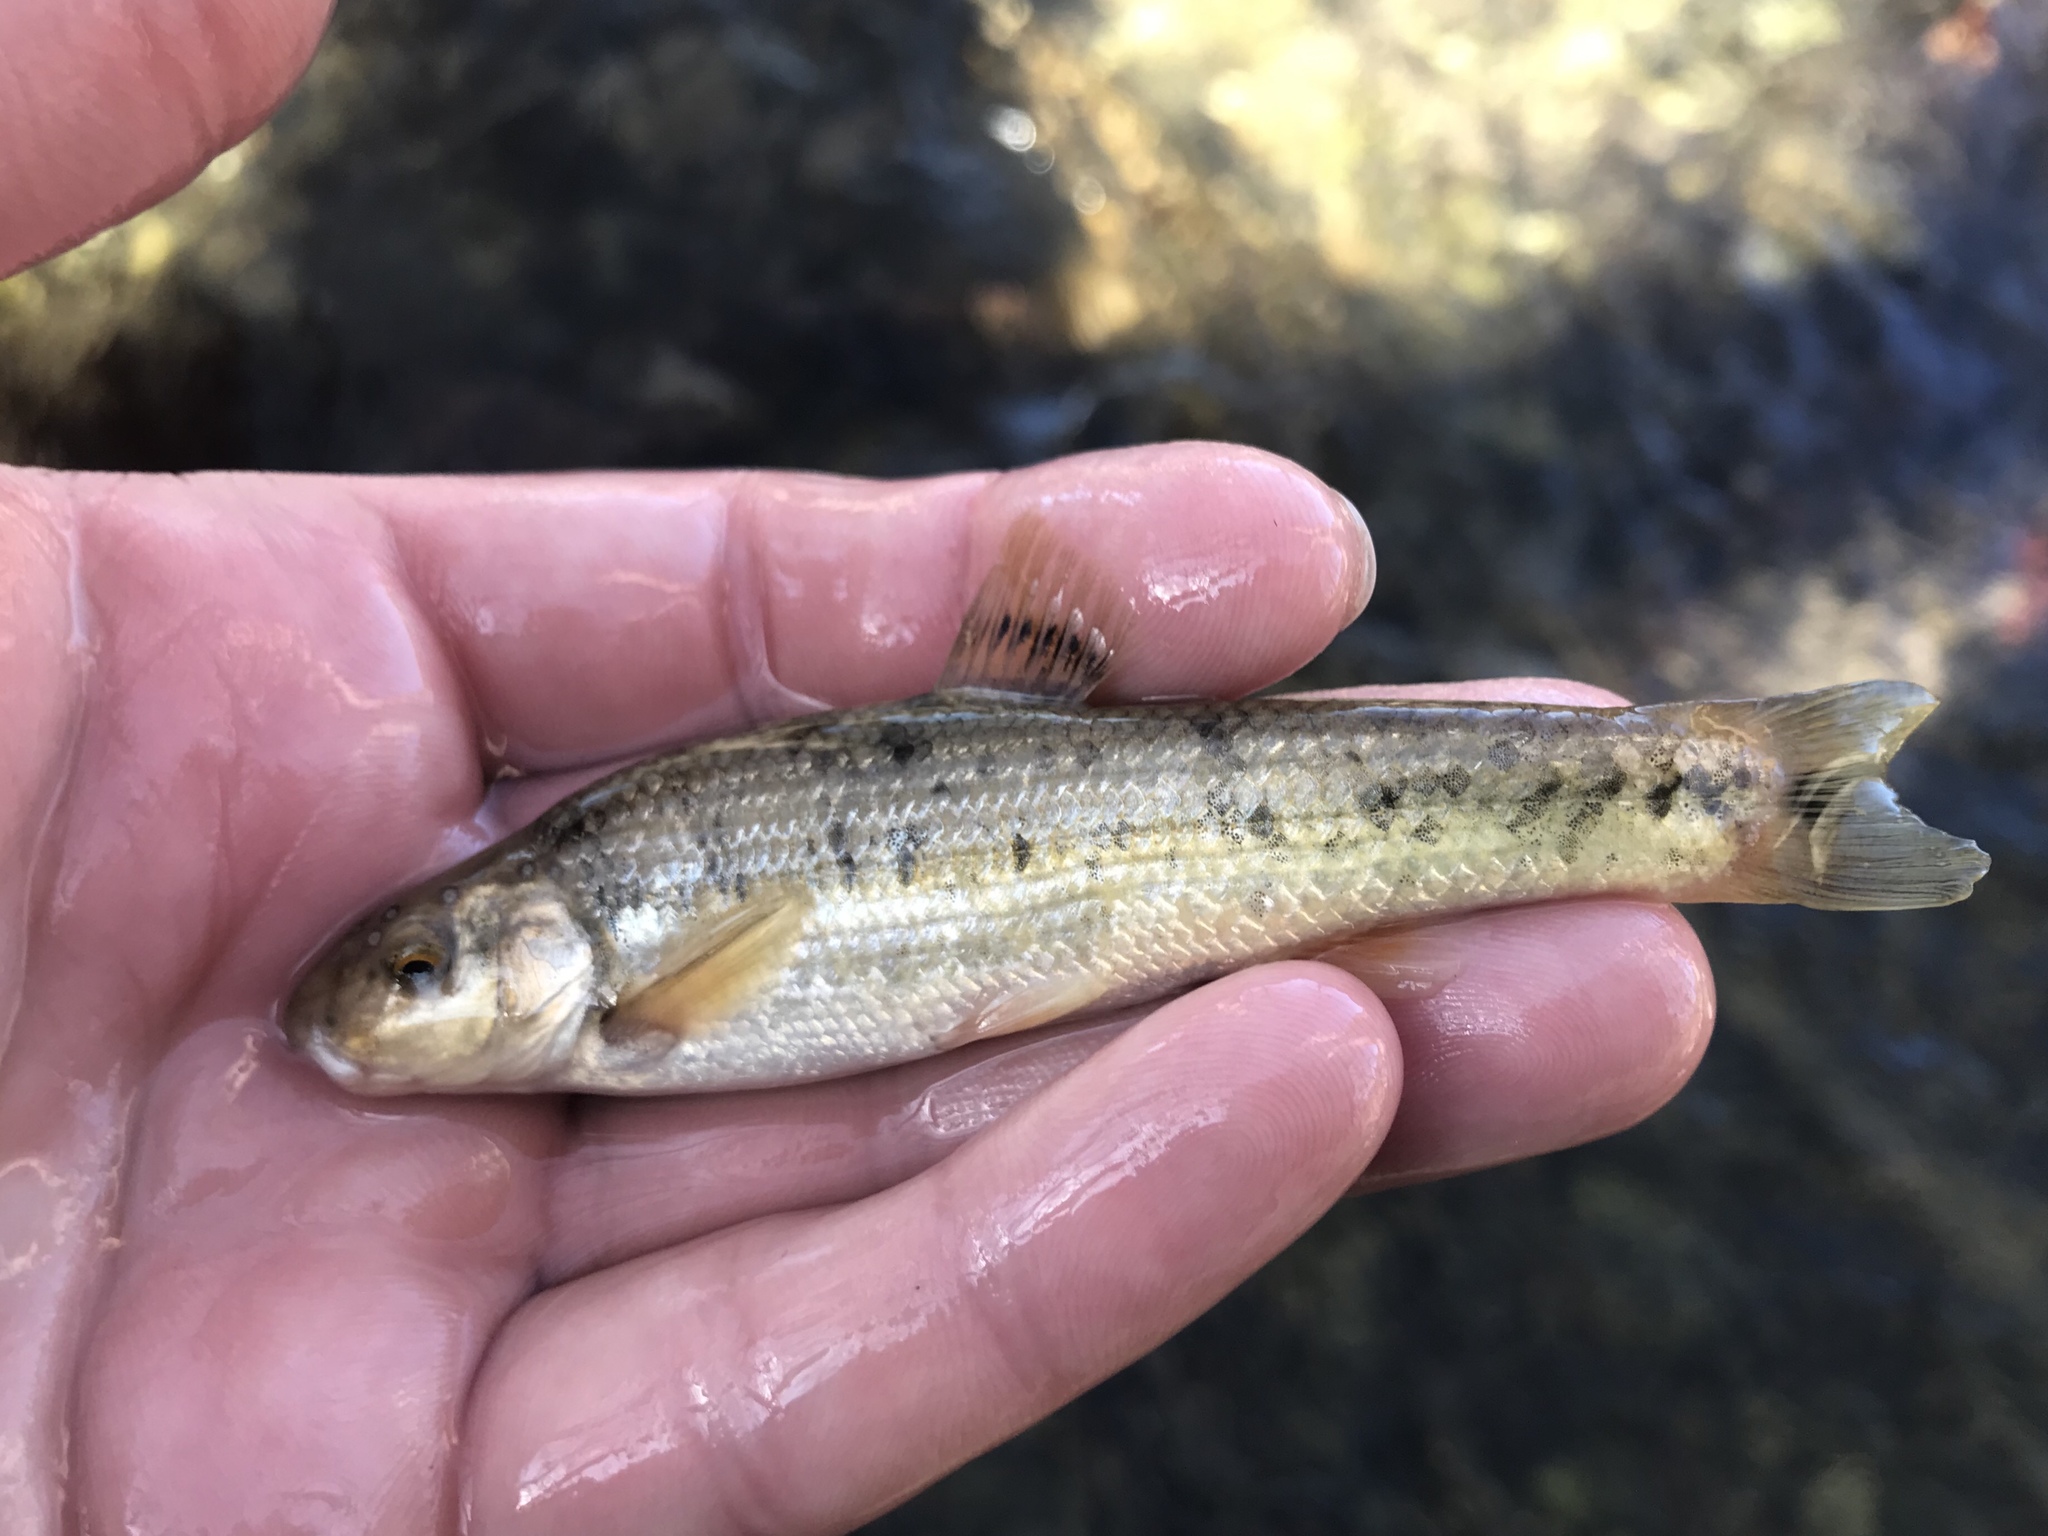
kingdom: Animalia
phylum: Chordata
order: Cypriniformes
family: Cyprinidae
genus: Campostoma
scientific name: Campostoma anomalum
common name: Central stoneroller
